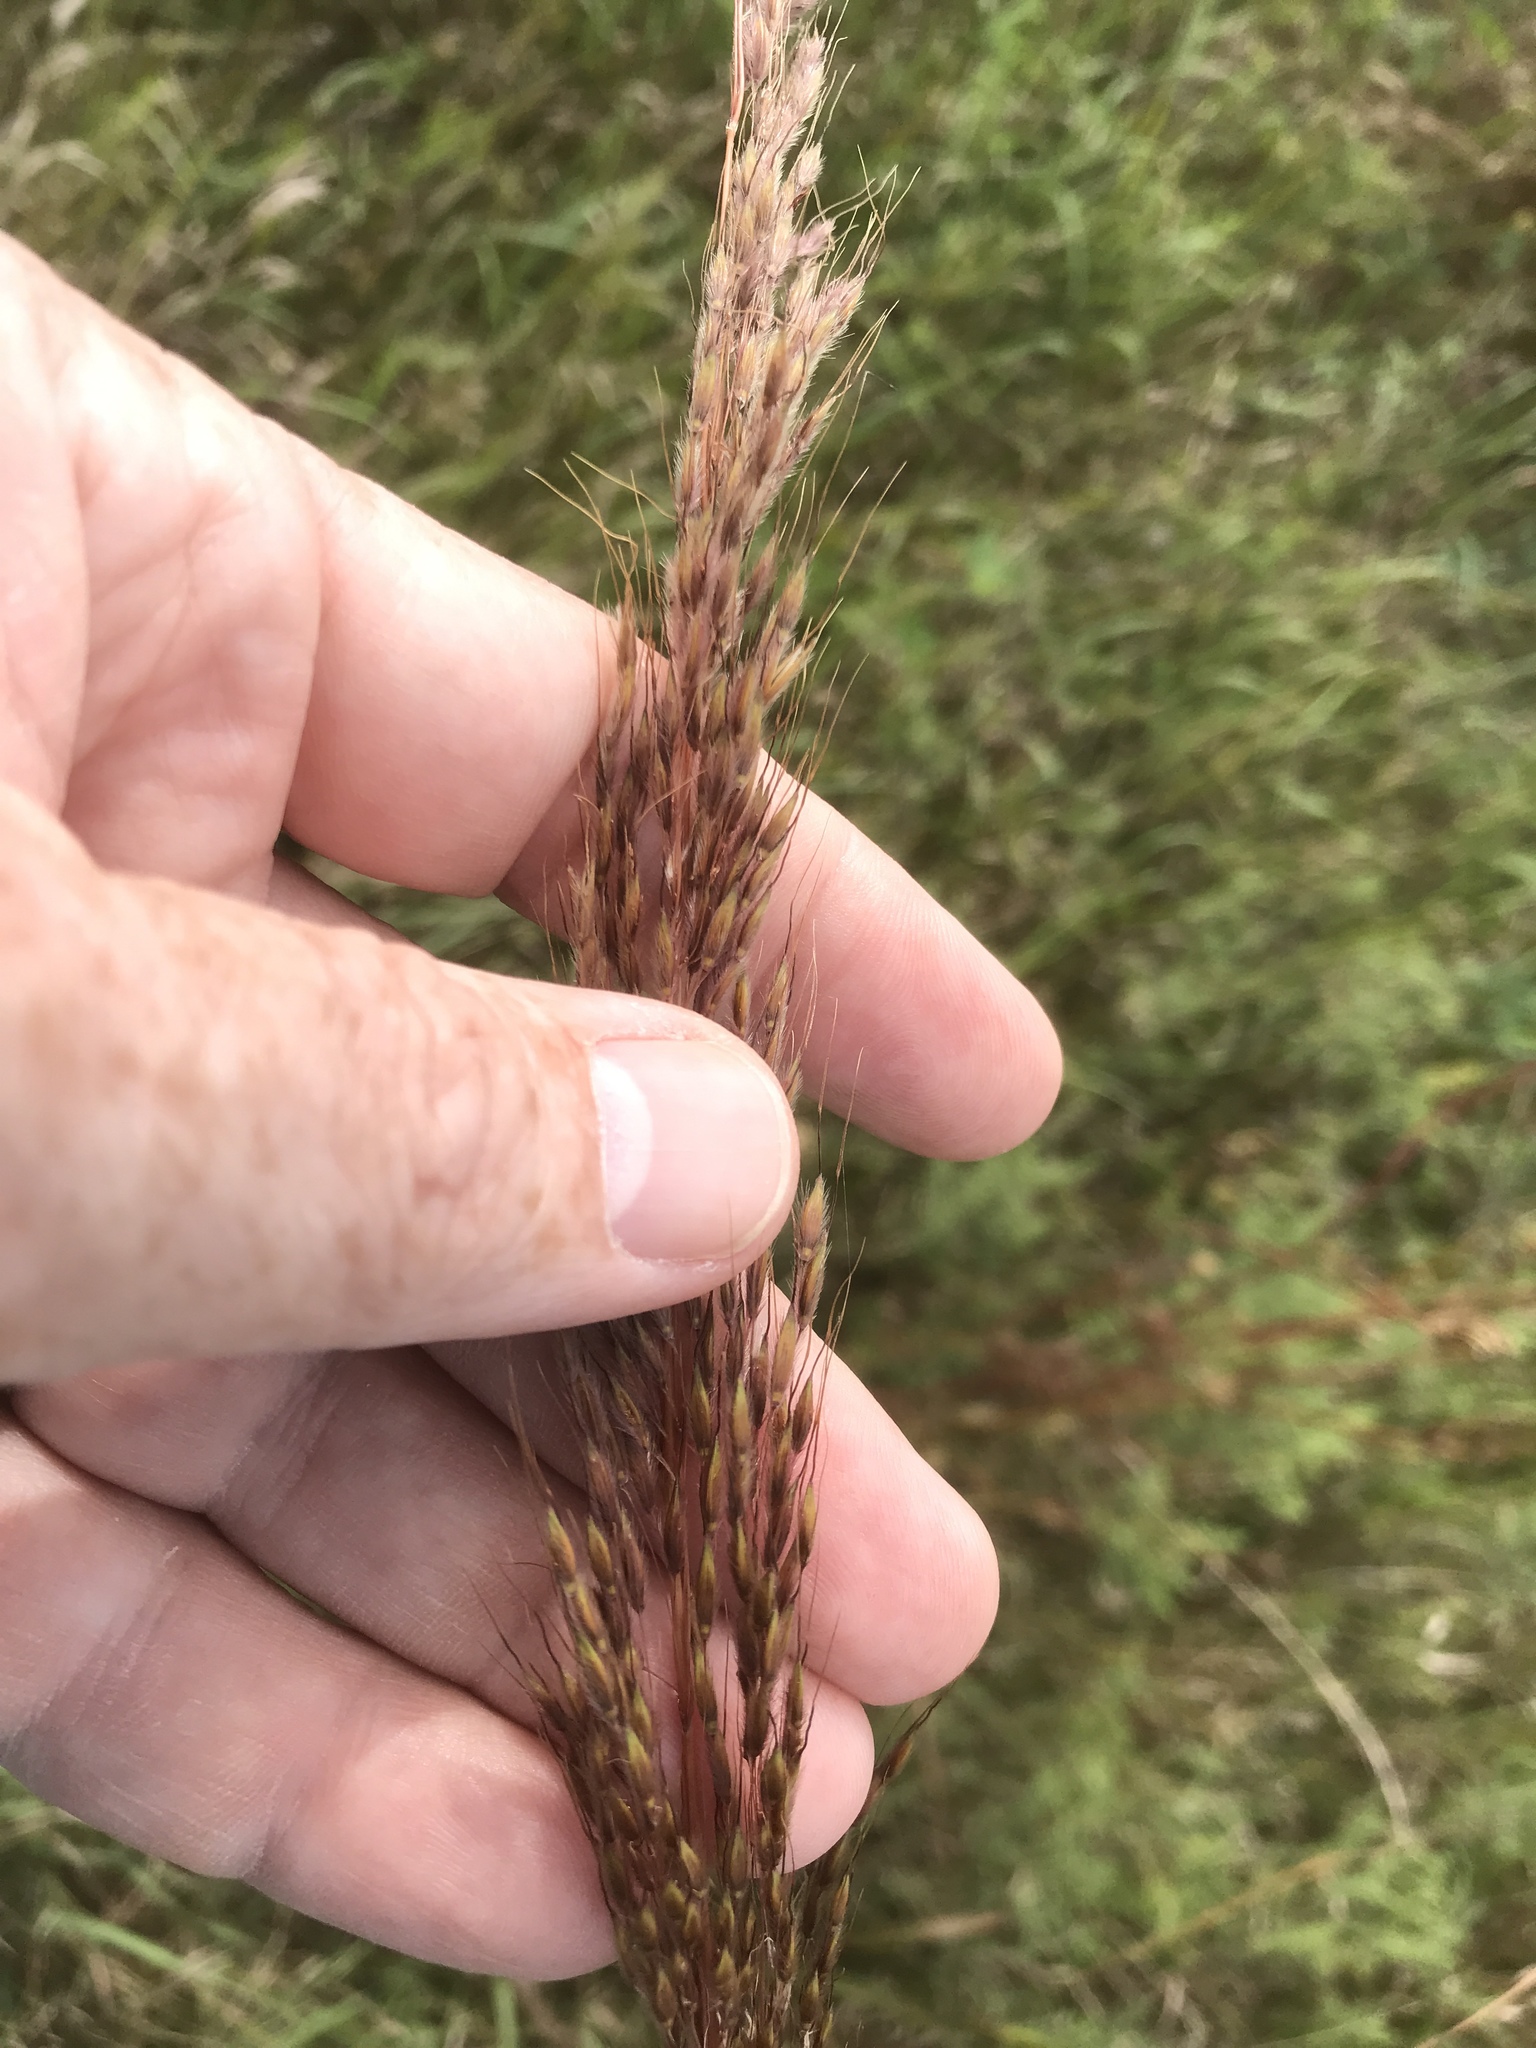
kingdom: Plantae
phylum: Tracheophyta
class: Liliopsida
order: Poales
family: Poaceae
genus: Sorghastrum
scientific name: Sorghastrum nutans
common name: Indian grass
